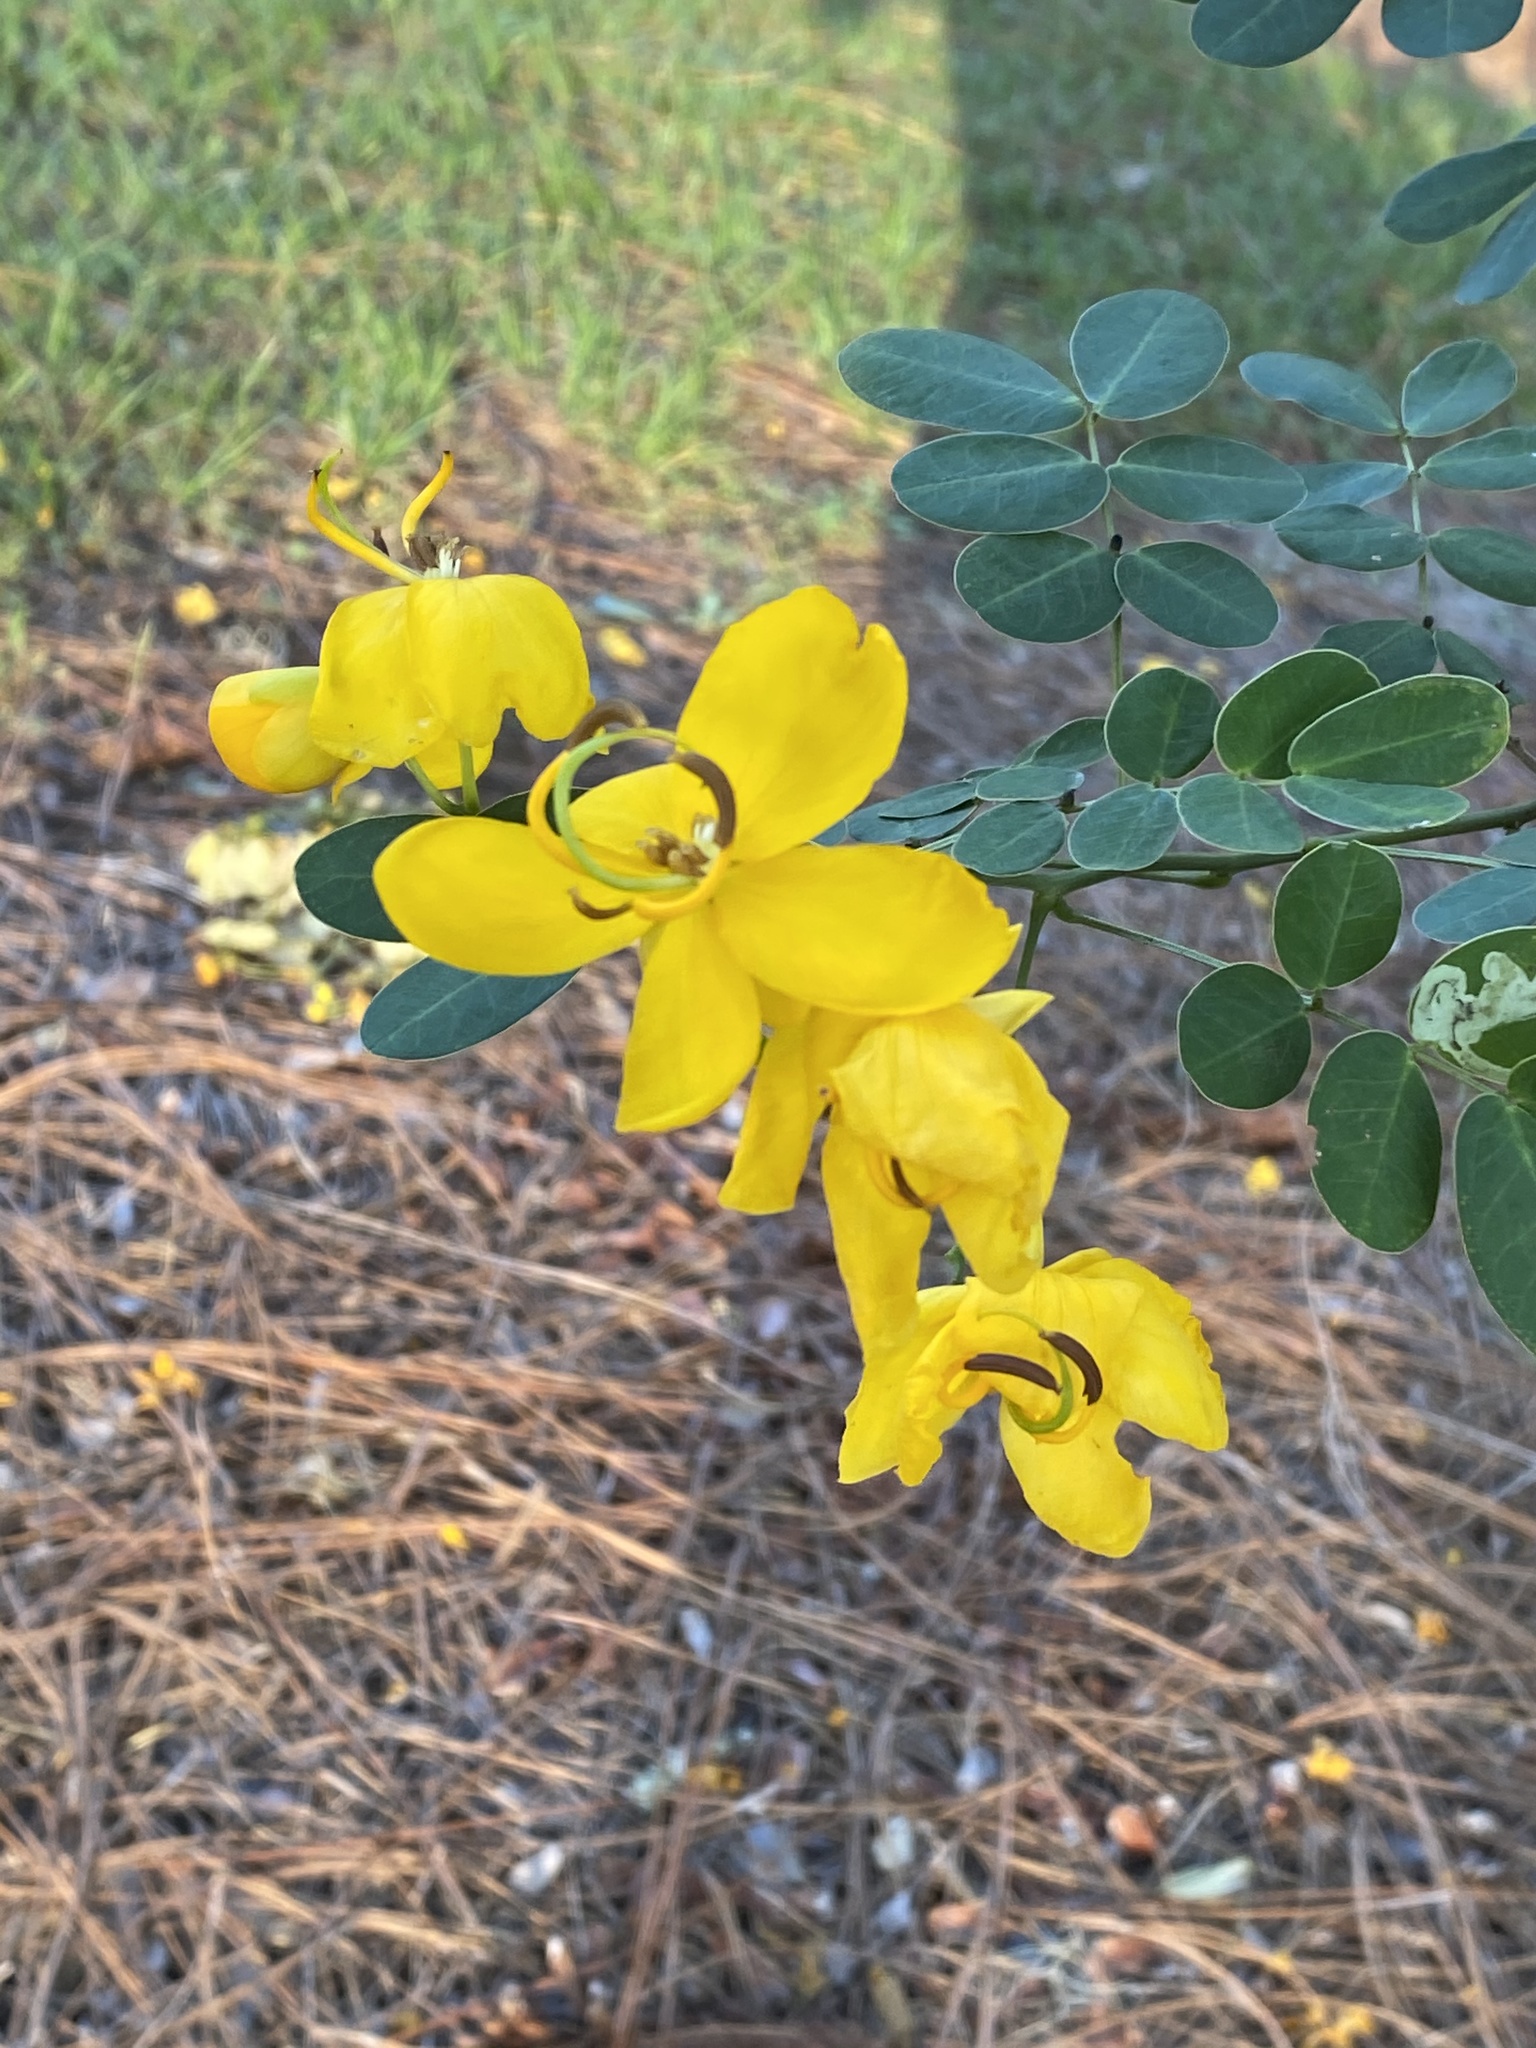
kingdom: Plantae
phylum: Tracheophyta
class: Magnoliopsida
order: Fabales
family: Fabaceae
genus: Senna
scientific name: Senna pendula
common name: Easter cassia
